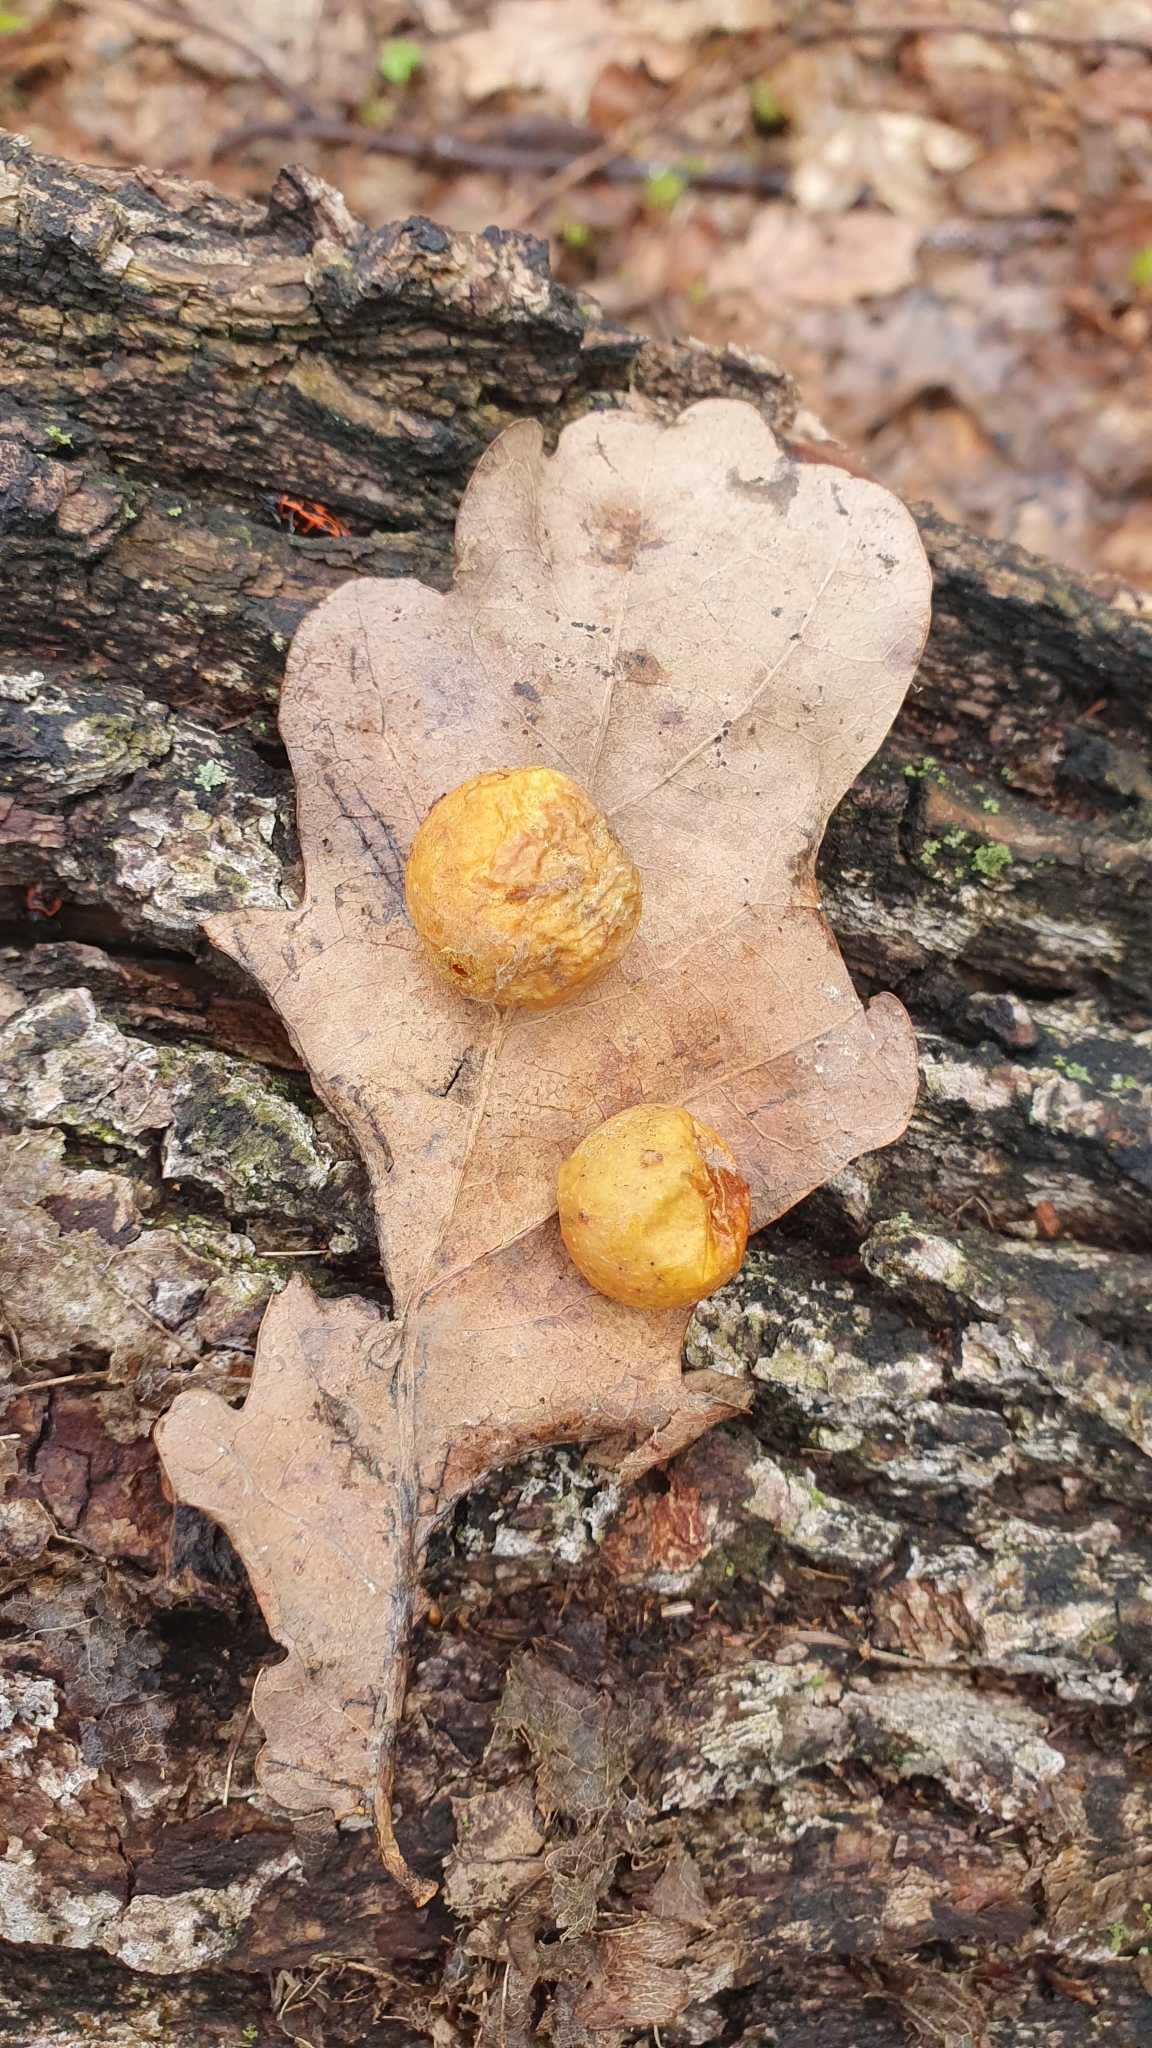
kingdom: Animalia
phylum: Arthropoda
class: Insecta
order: Hymenoptera
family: Cynipidae
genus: Cynips
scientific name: Cynips quercusfolii
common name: Cherry gall
